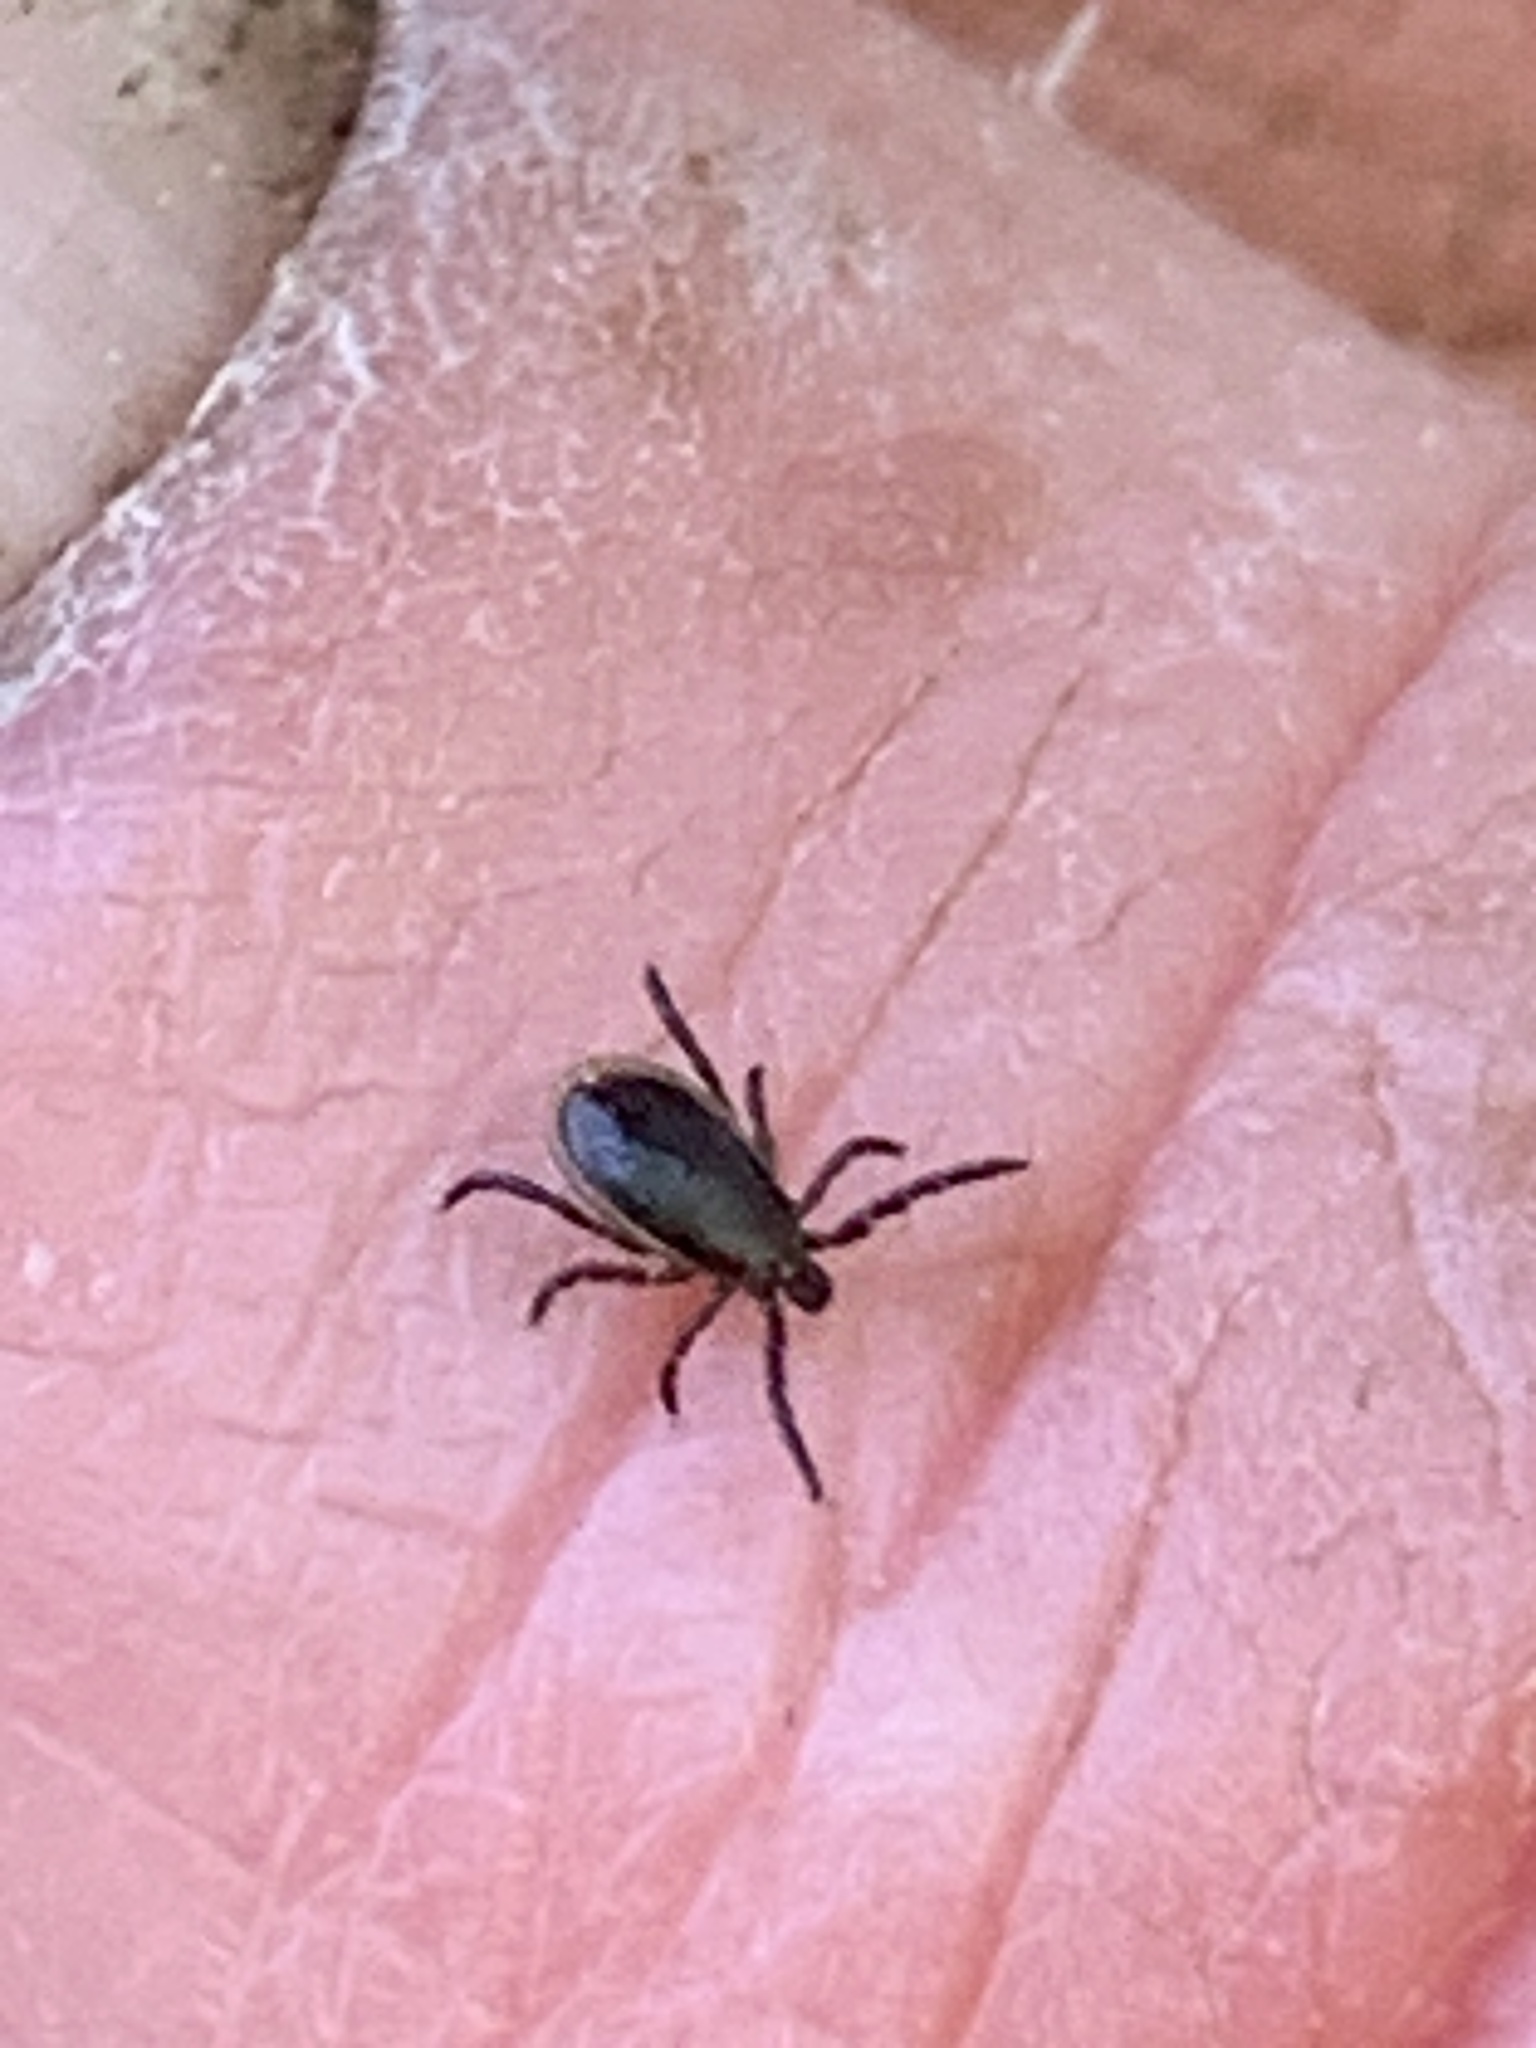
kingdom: Animalia
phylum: Arthropoda
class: Arachnida
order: Ixodida
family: Ixodidae
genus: Ixodes
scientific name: Ixodes scapularis
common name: Black legged tick
